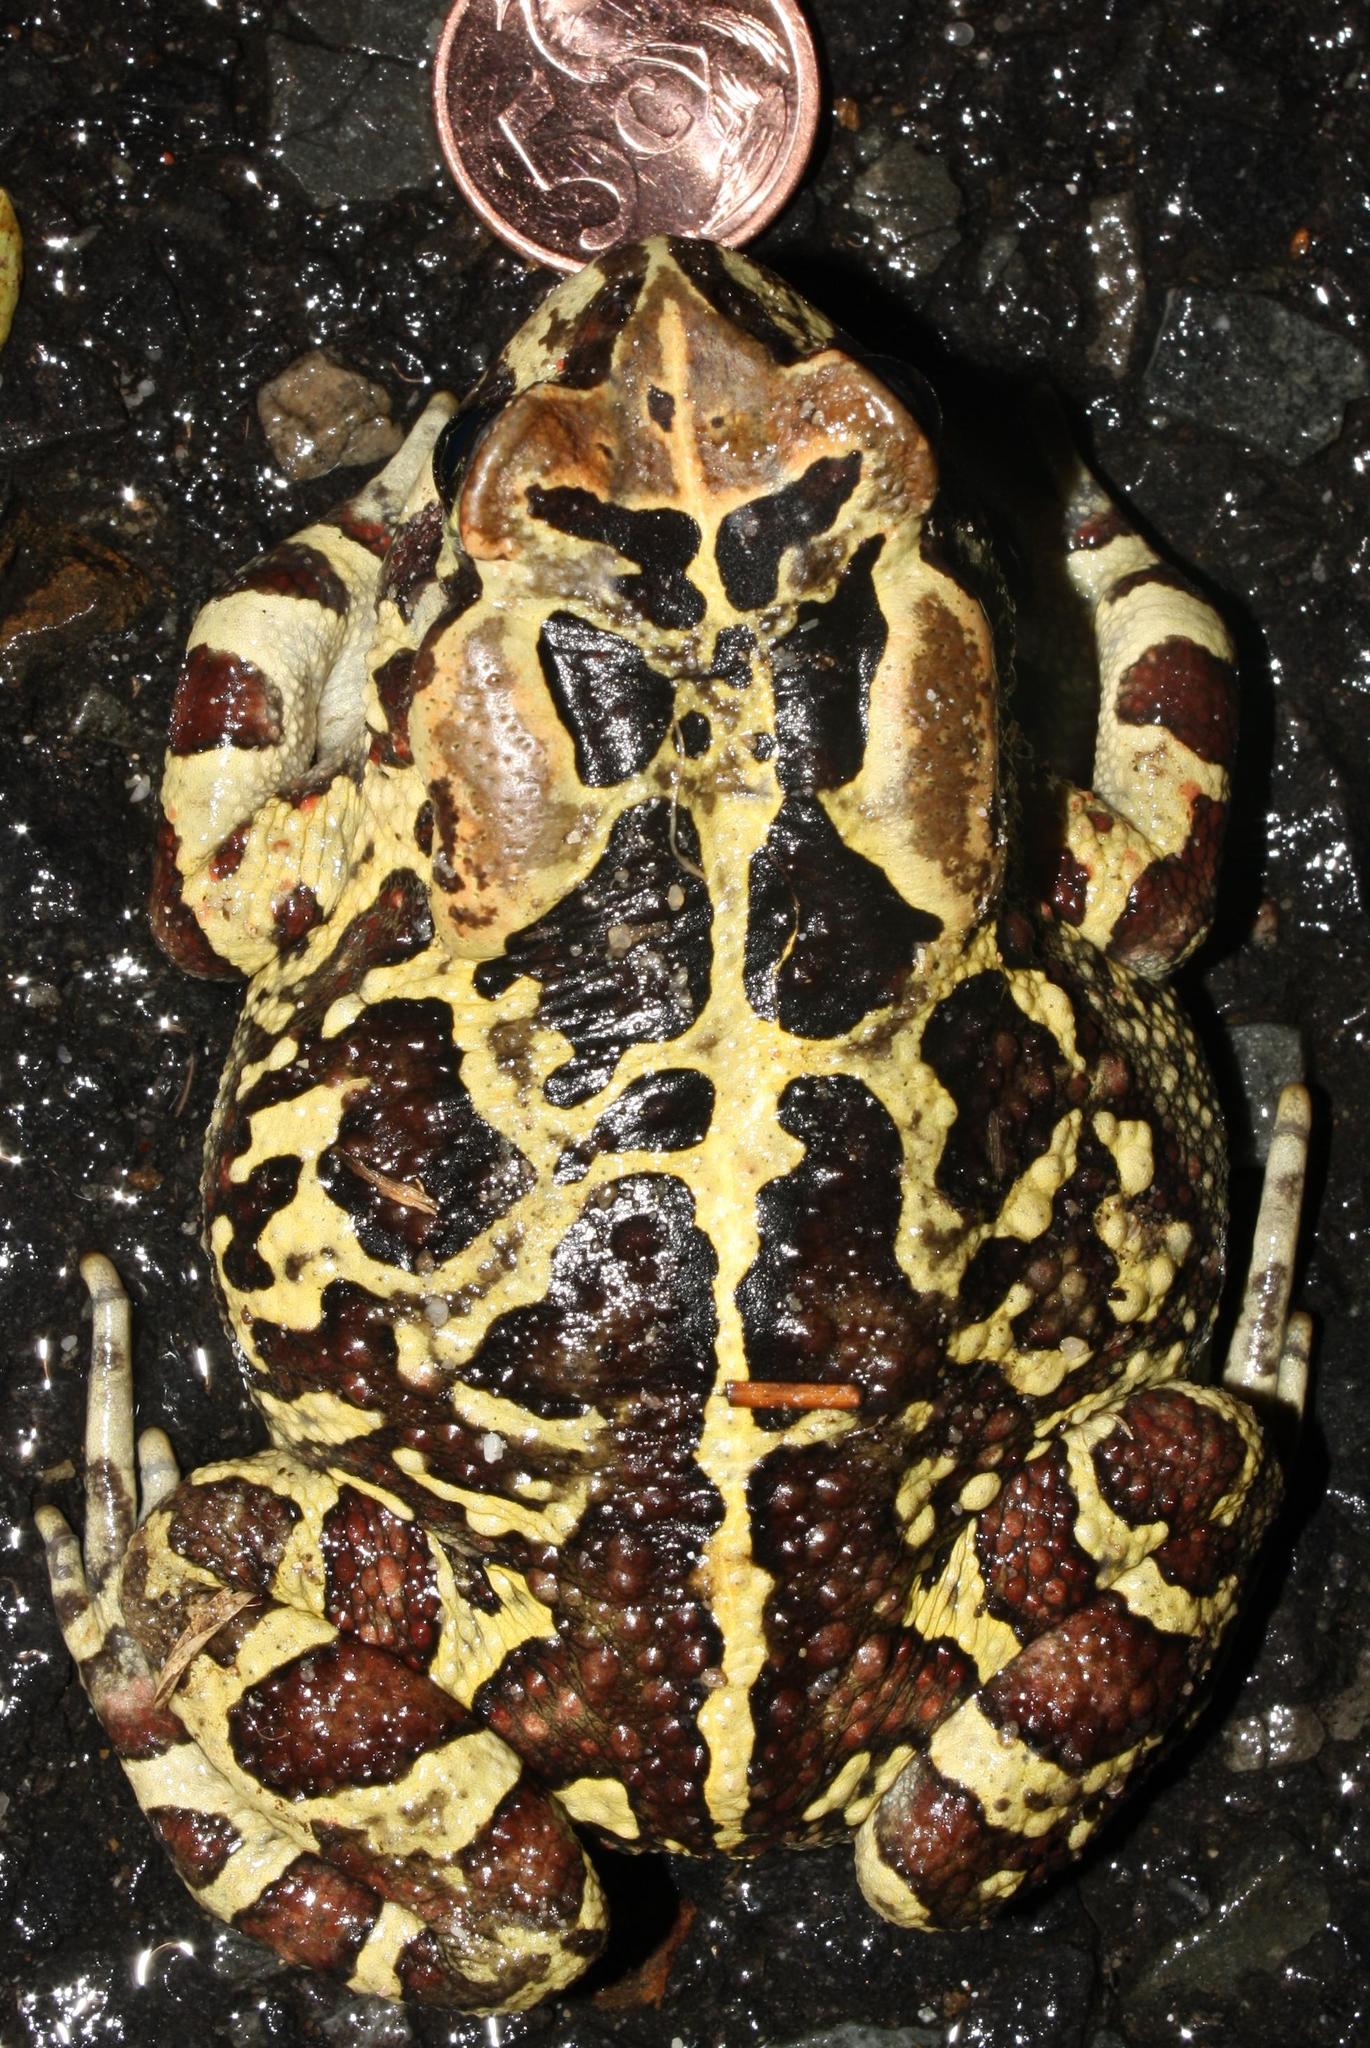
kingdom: Animalia
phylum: Chordata
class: Amphibia
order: Anura
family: Bufonidae
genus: Sclerophrys
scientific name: Sclerophrys pantherina
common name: Panther toad
